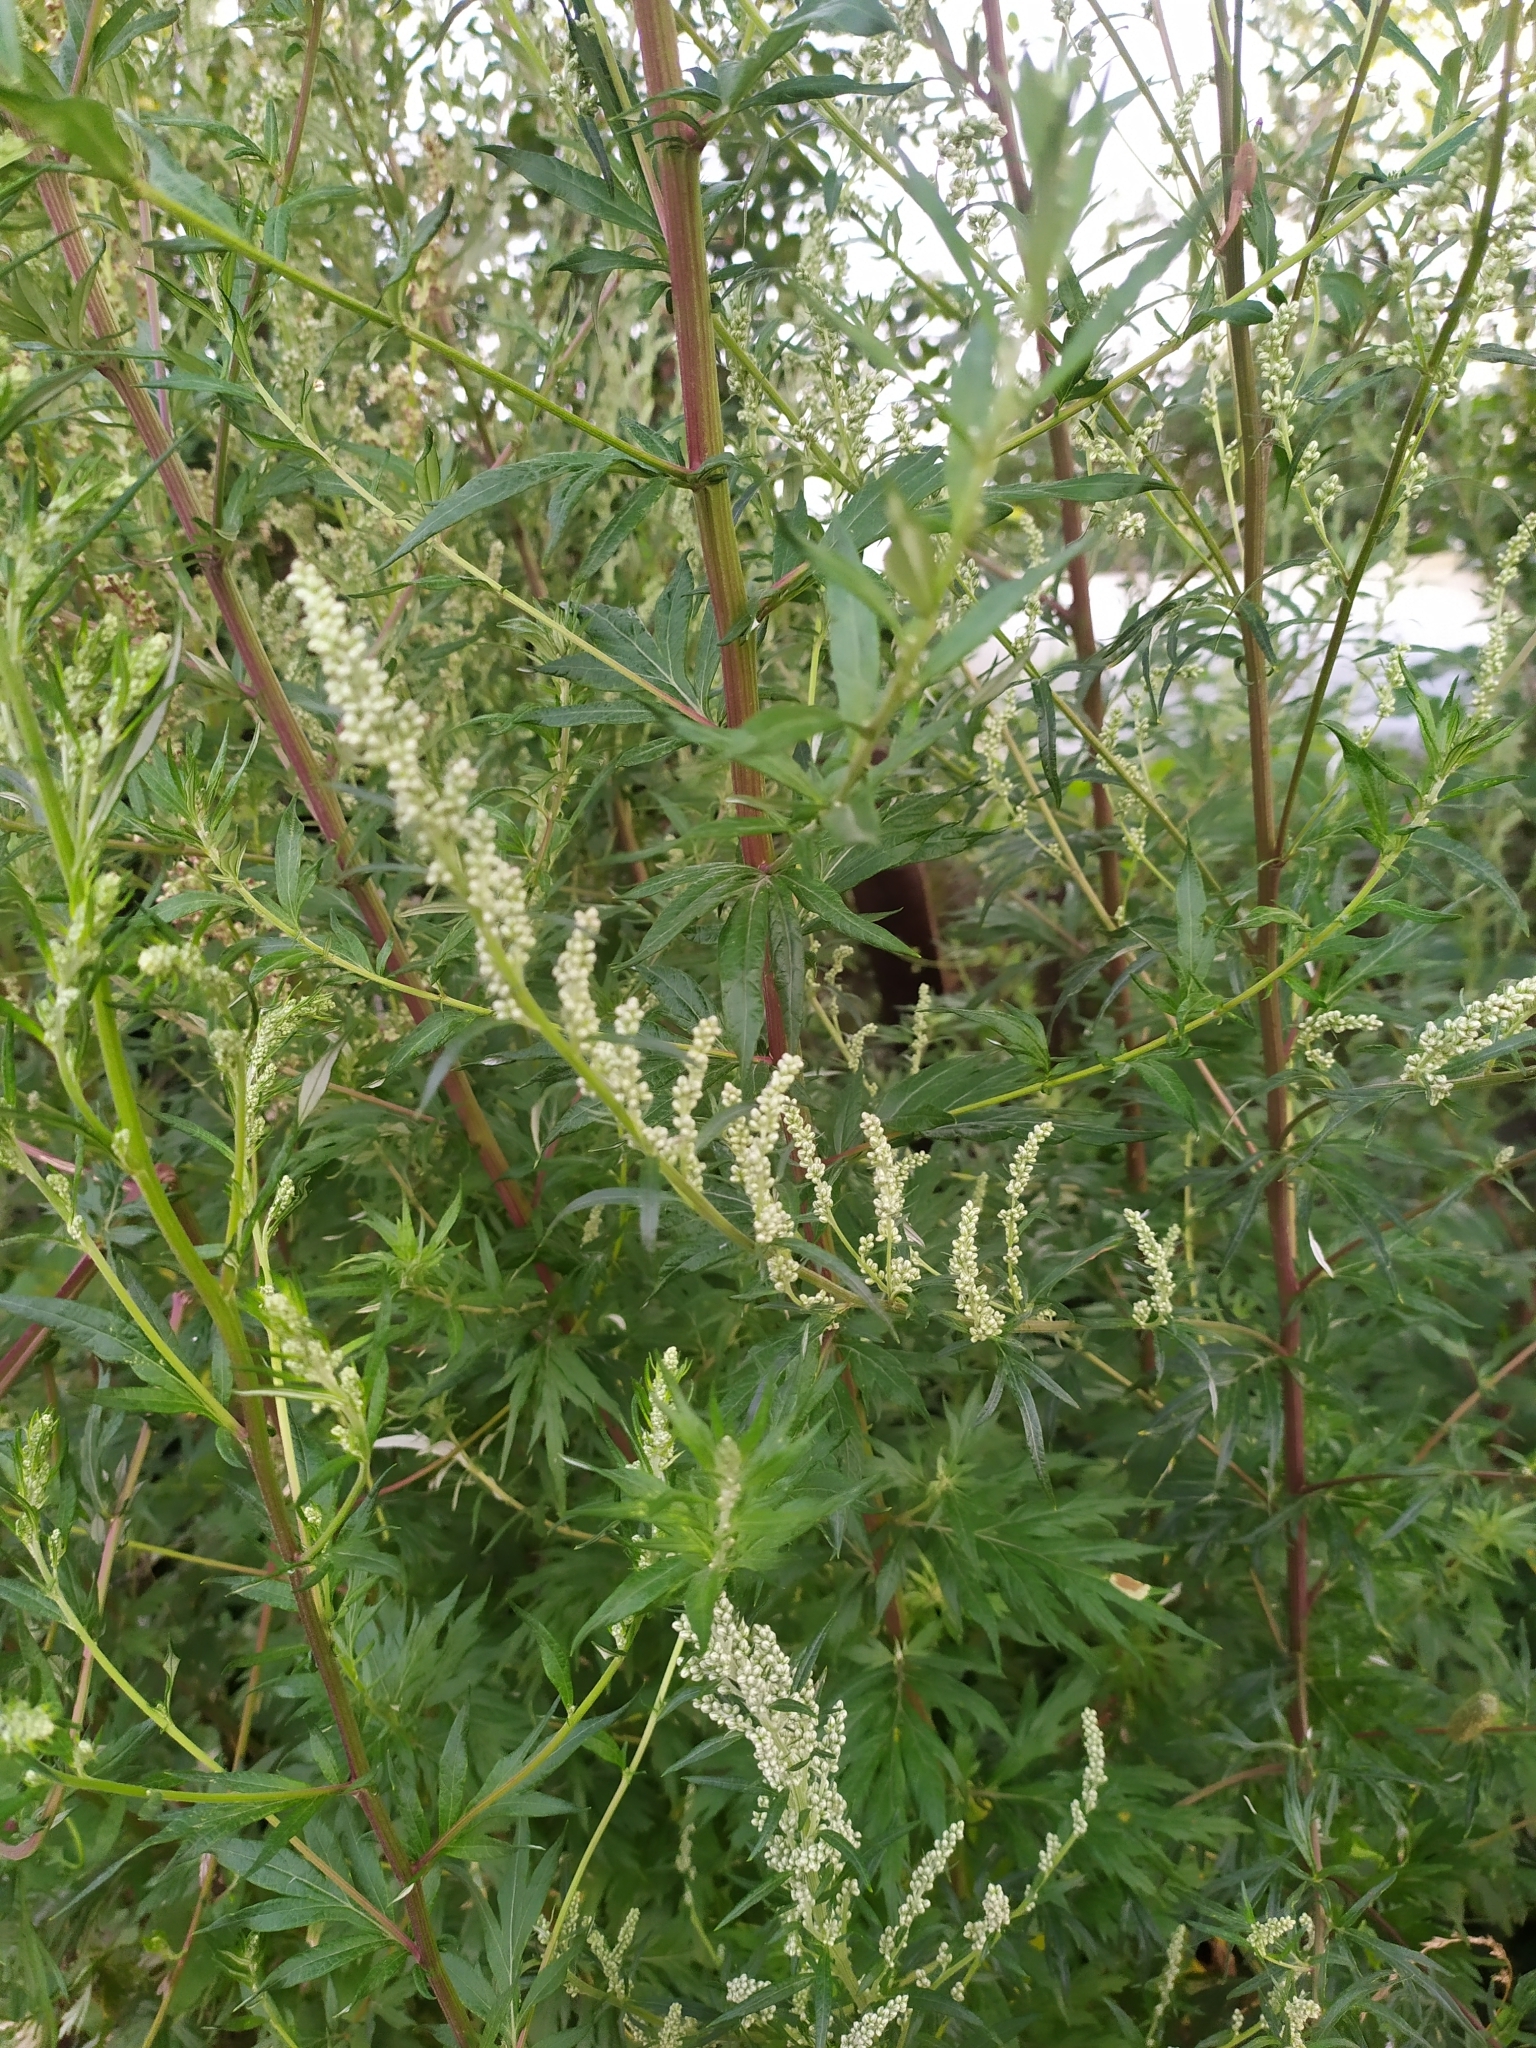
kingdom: Plantae
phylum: Tracheophyta
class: Magnoliopsida
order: Asterales
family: Asteraceae
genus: Artemisia
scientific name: Artemisia vulgaris
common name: Mugwort
